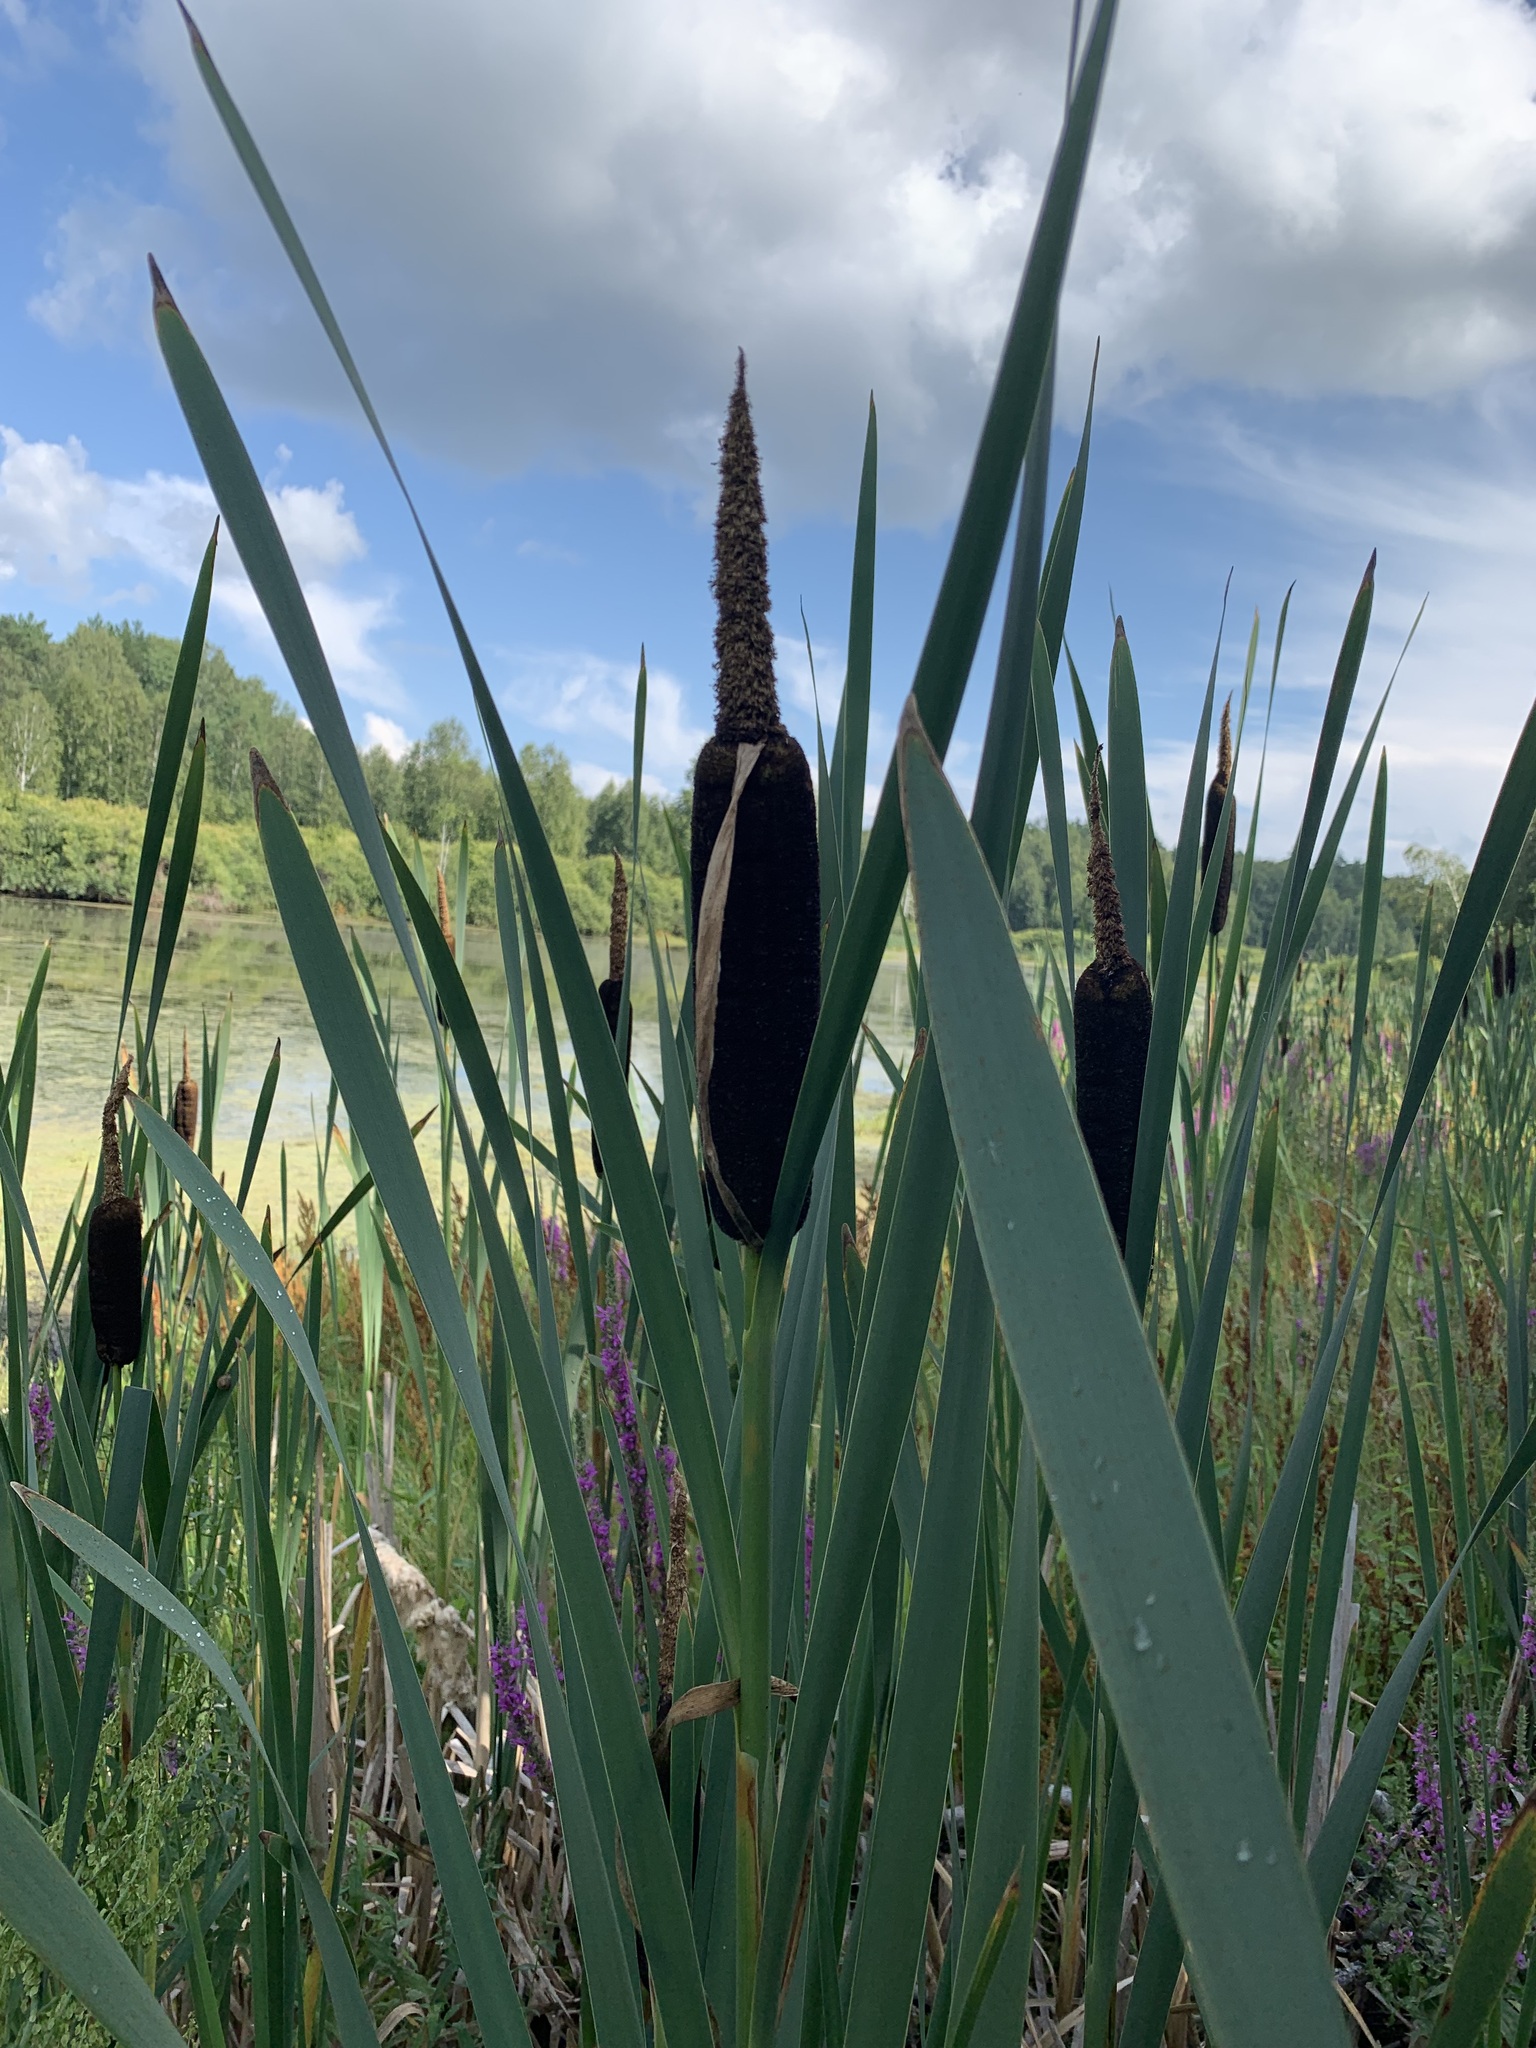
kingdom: Plantae
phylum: Tracheophyta
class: Liliopsida
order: Poales
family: Typhaceae
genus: Typha
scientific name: Typha latifolia
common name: Broadleaf cattail
